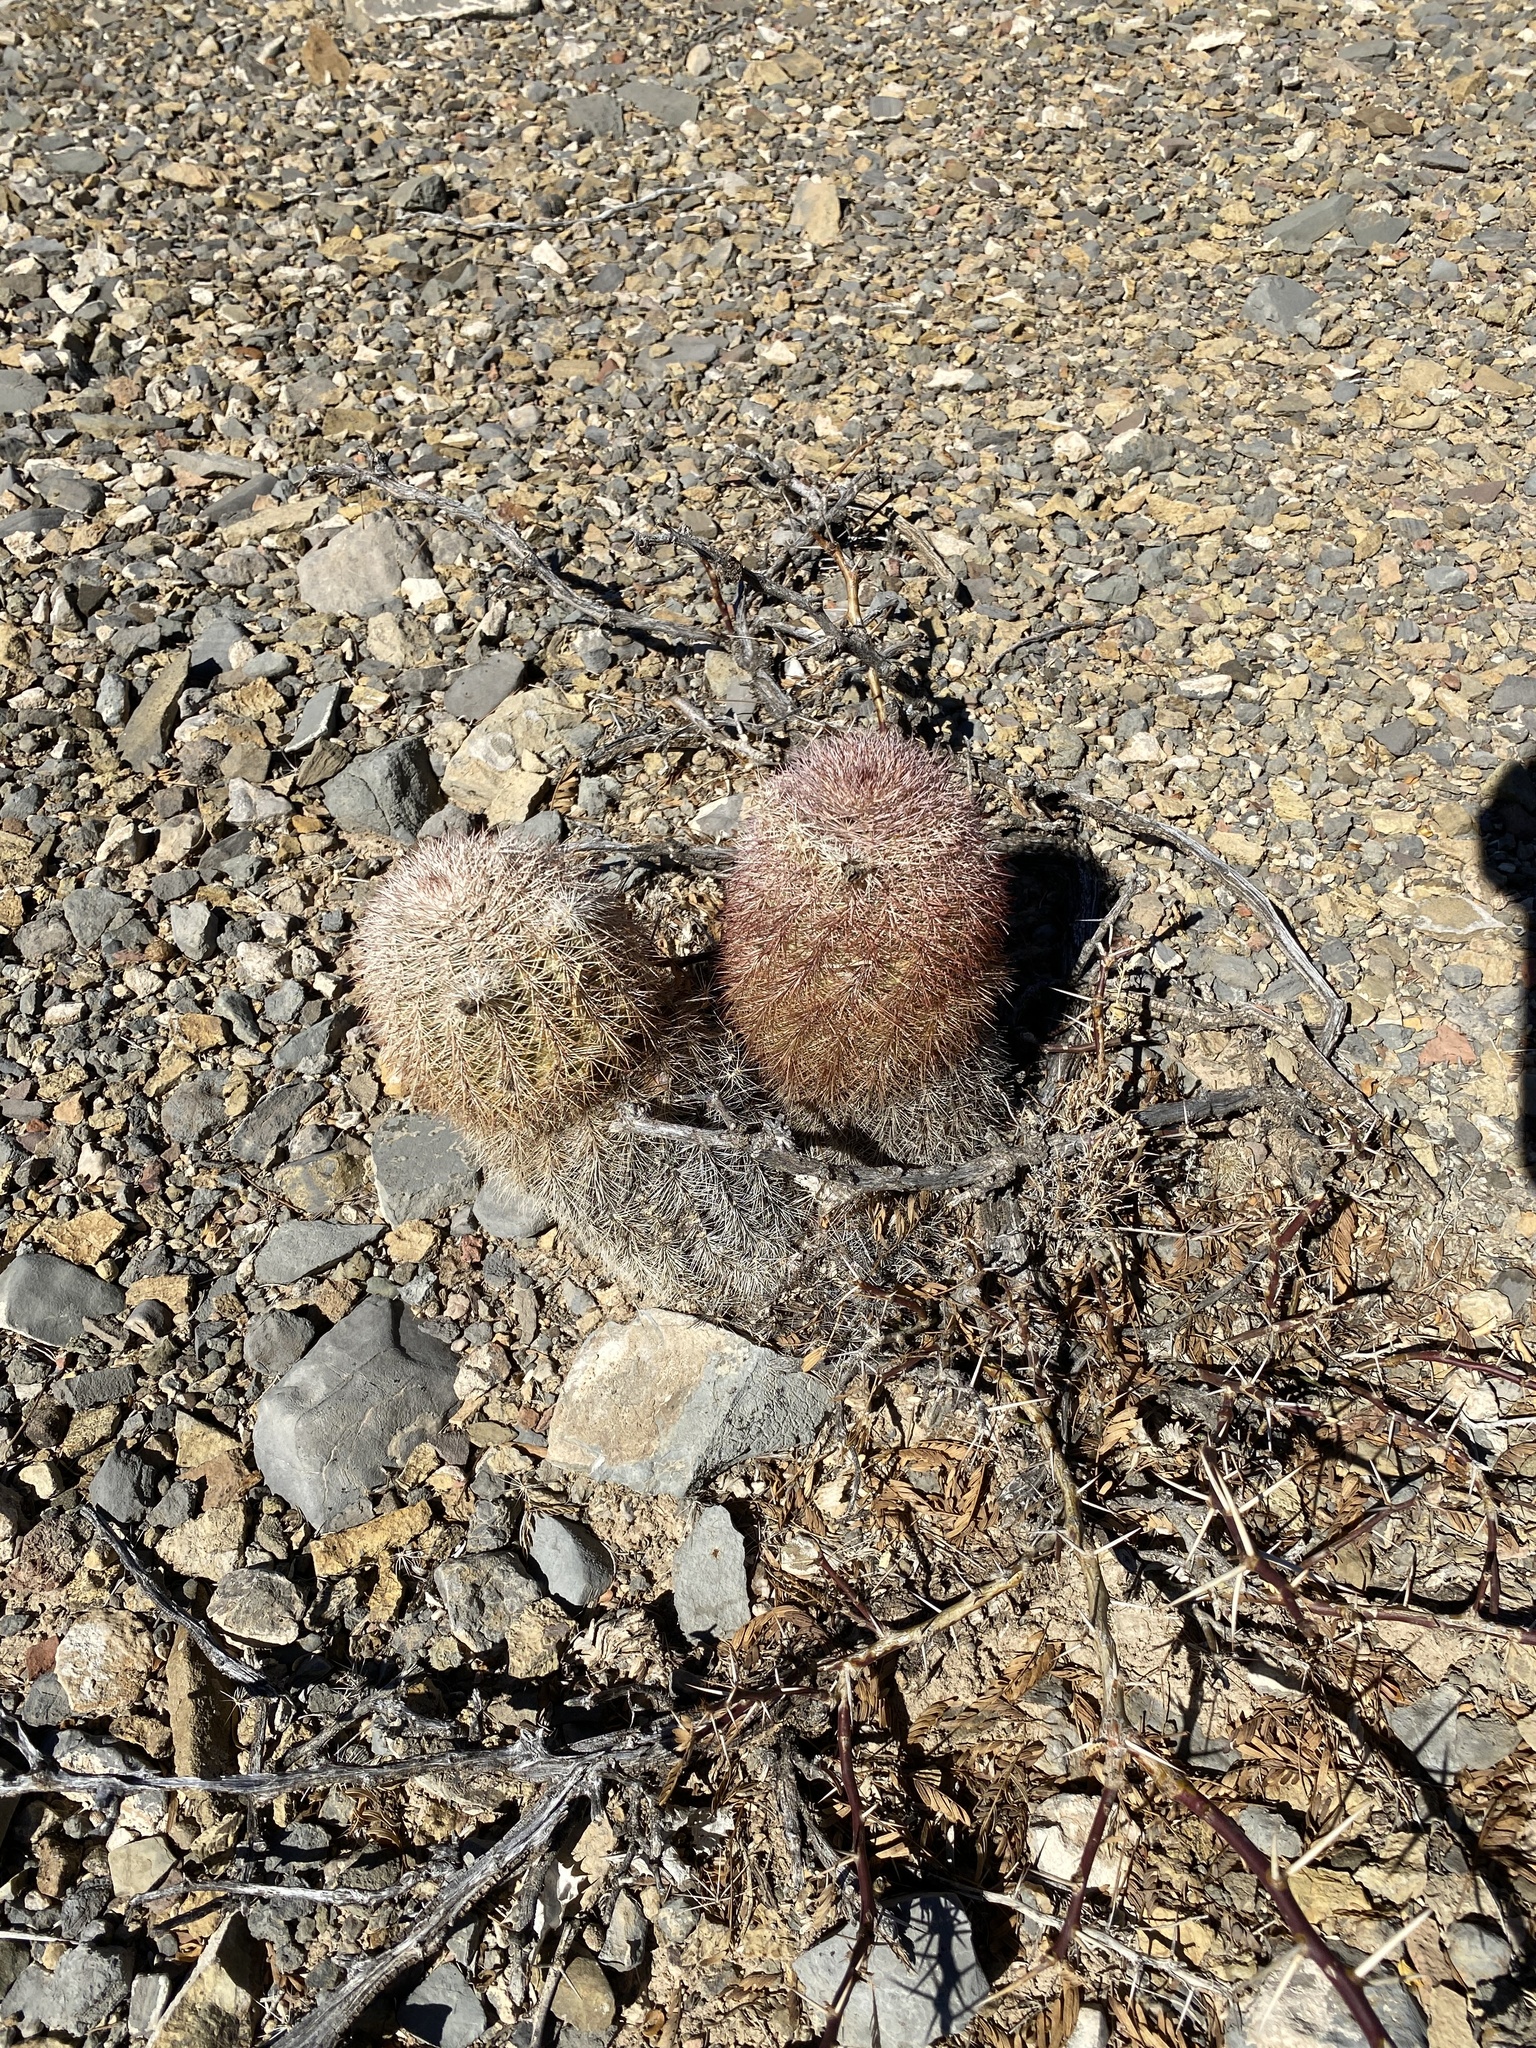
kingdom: Plantae
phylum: Tracheophyta
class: Magnoliopsida
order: Caryophyllales
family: Cactaceae
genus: Echinocereus
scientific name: Echinocereus dasyacanthus
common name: Spiny hedgehog cactus
